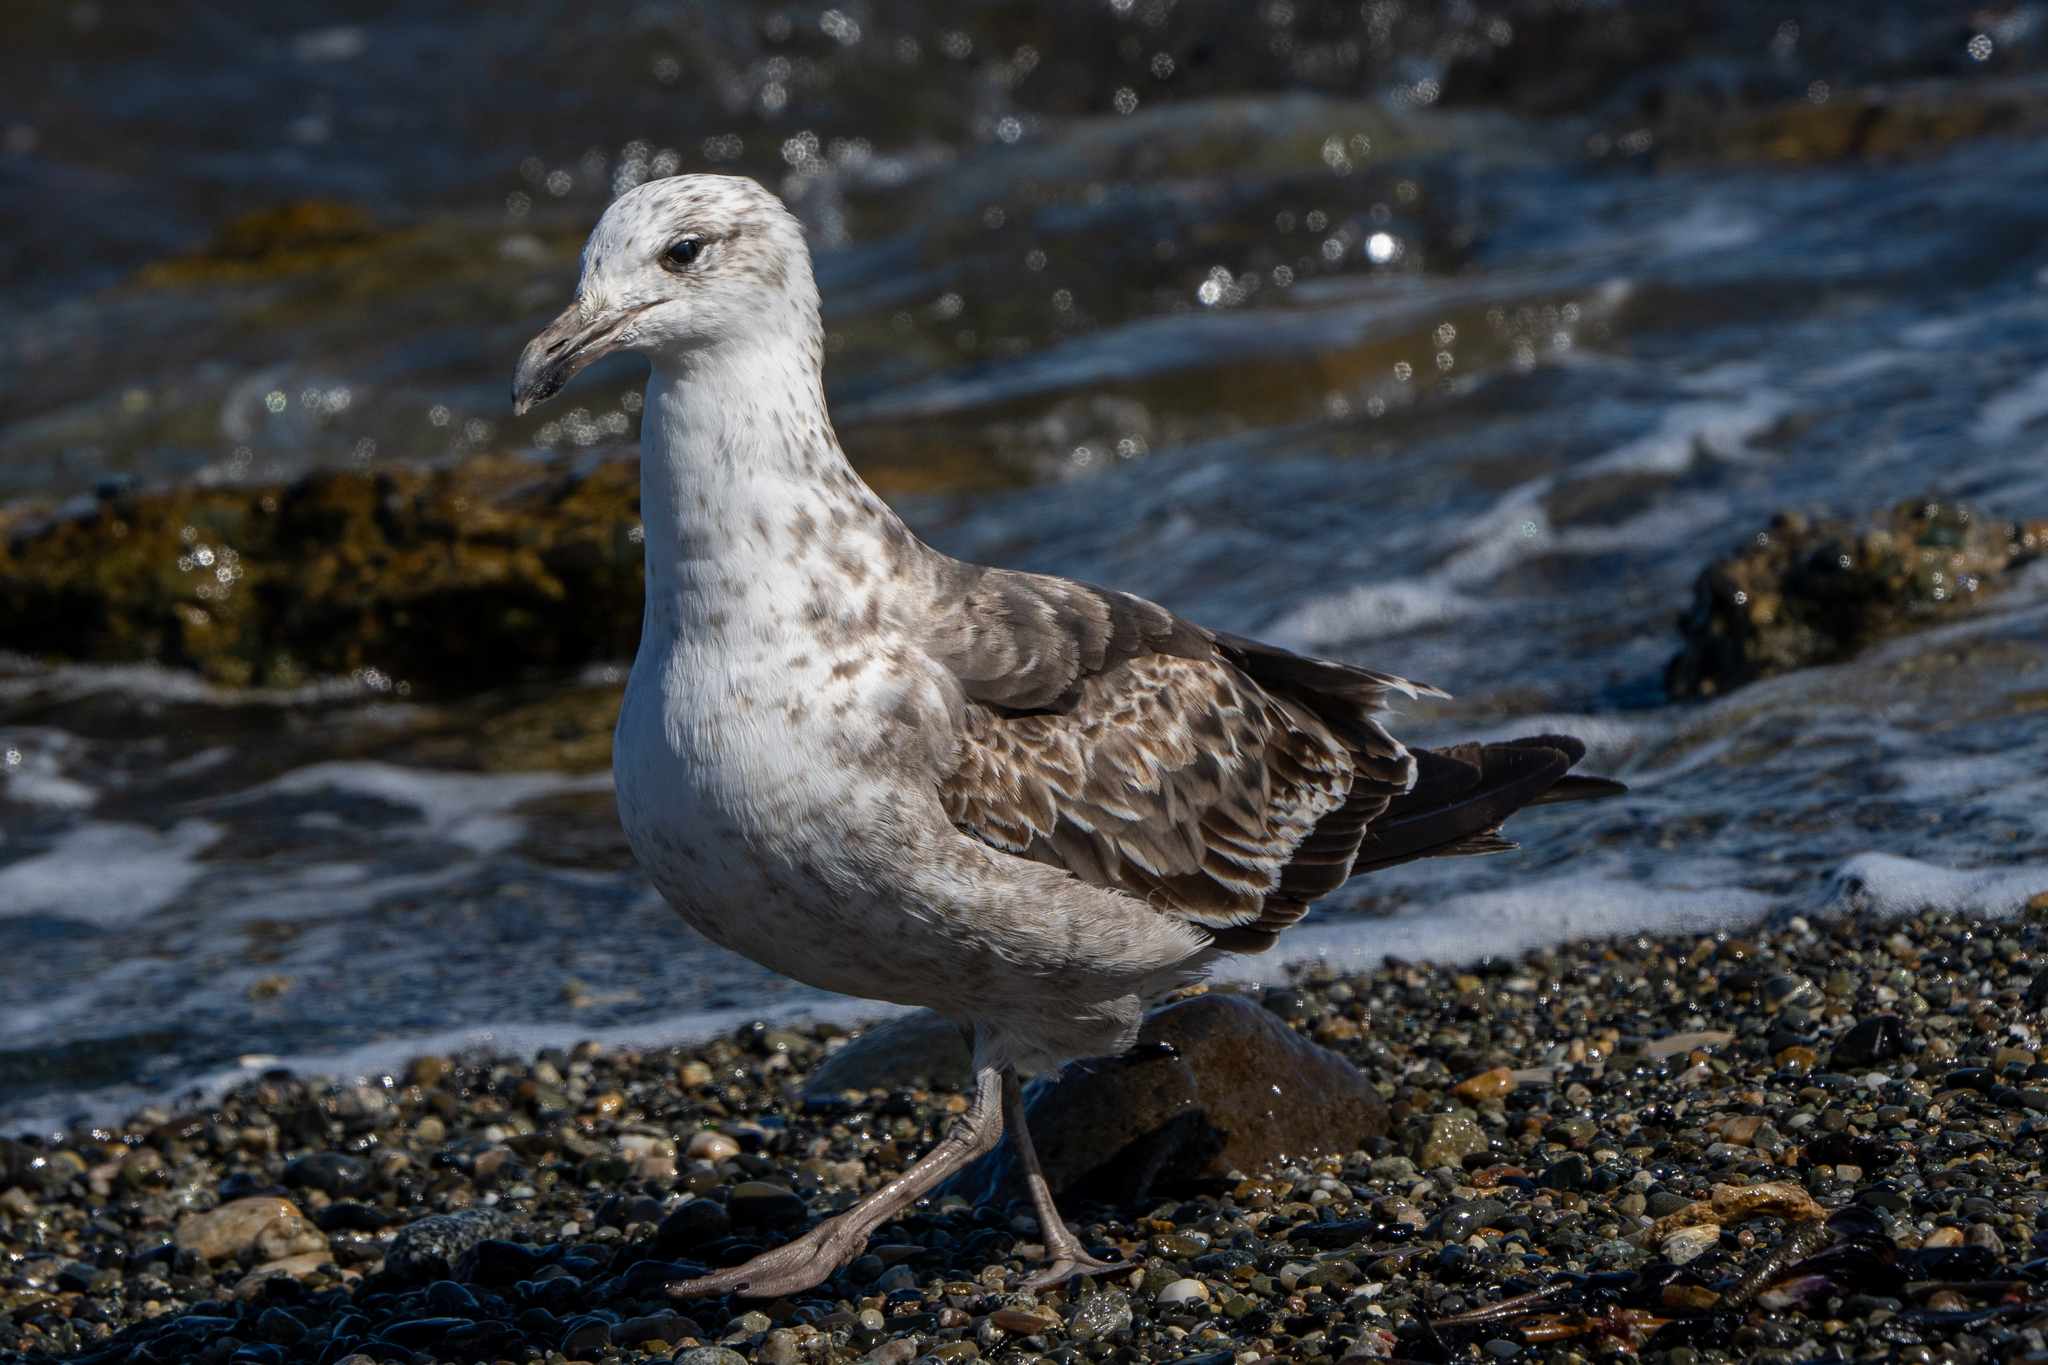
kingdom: Animalia
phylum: Chordata
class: Aves
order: Charadriiformes
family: Laridae
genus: Larus
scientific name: Larus dominicanus
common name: Kelp gull
